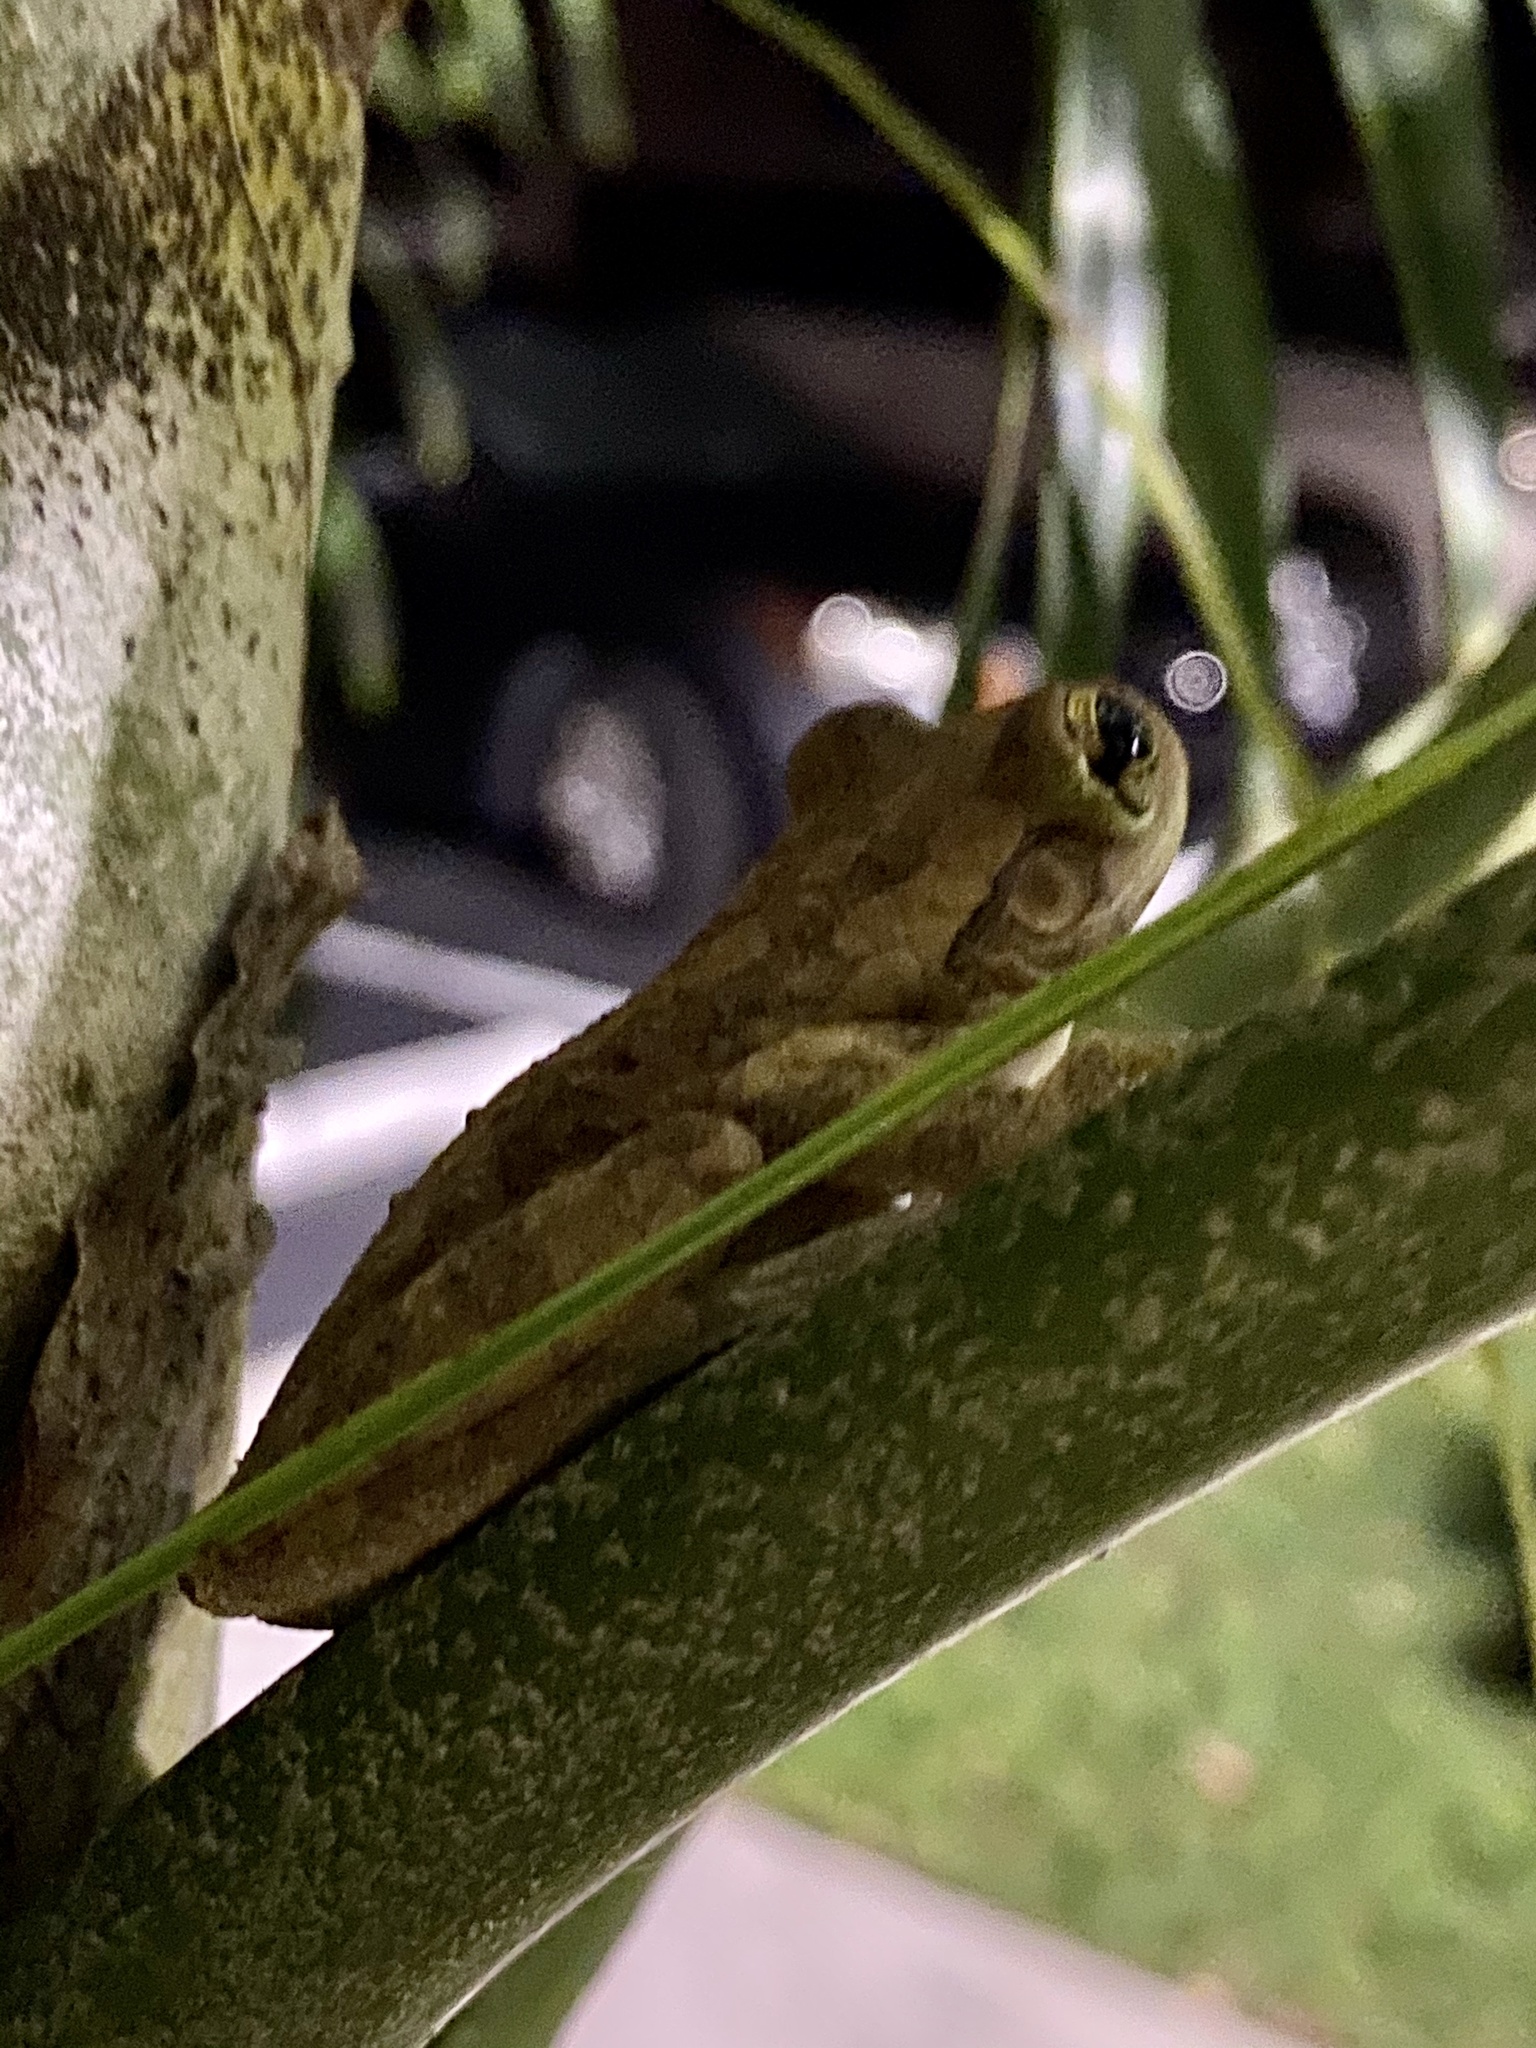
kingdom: Animalia
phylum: Chordata
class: Amphibia
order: Anura
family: Hylidae
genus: Osteopilus
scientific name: Osteopilus septentrionalis
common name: Cuban treefrog
